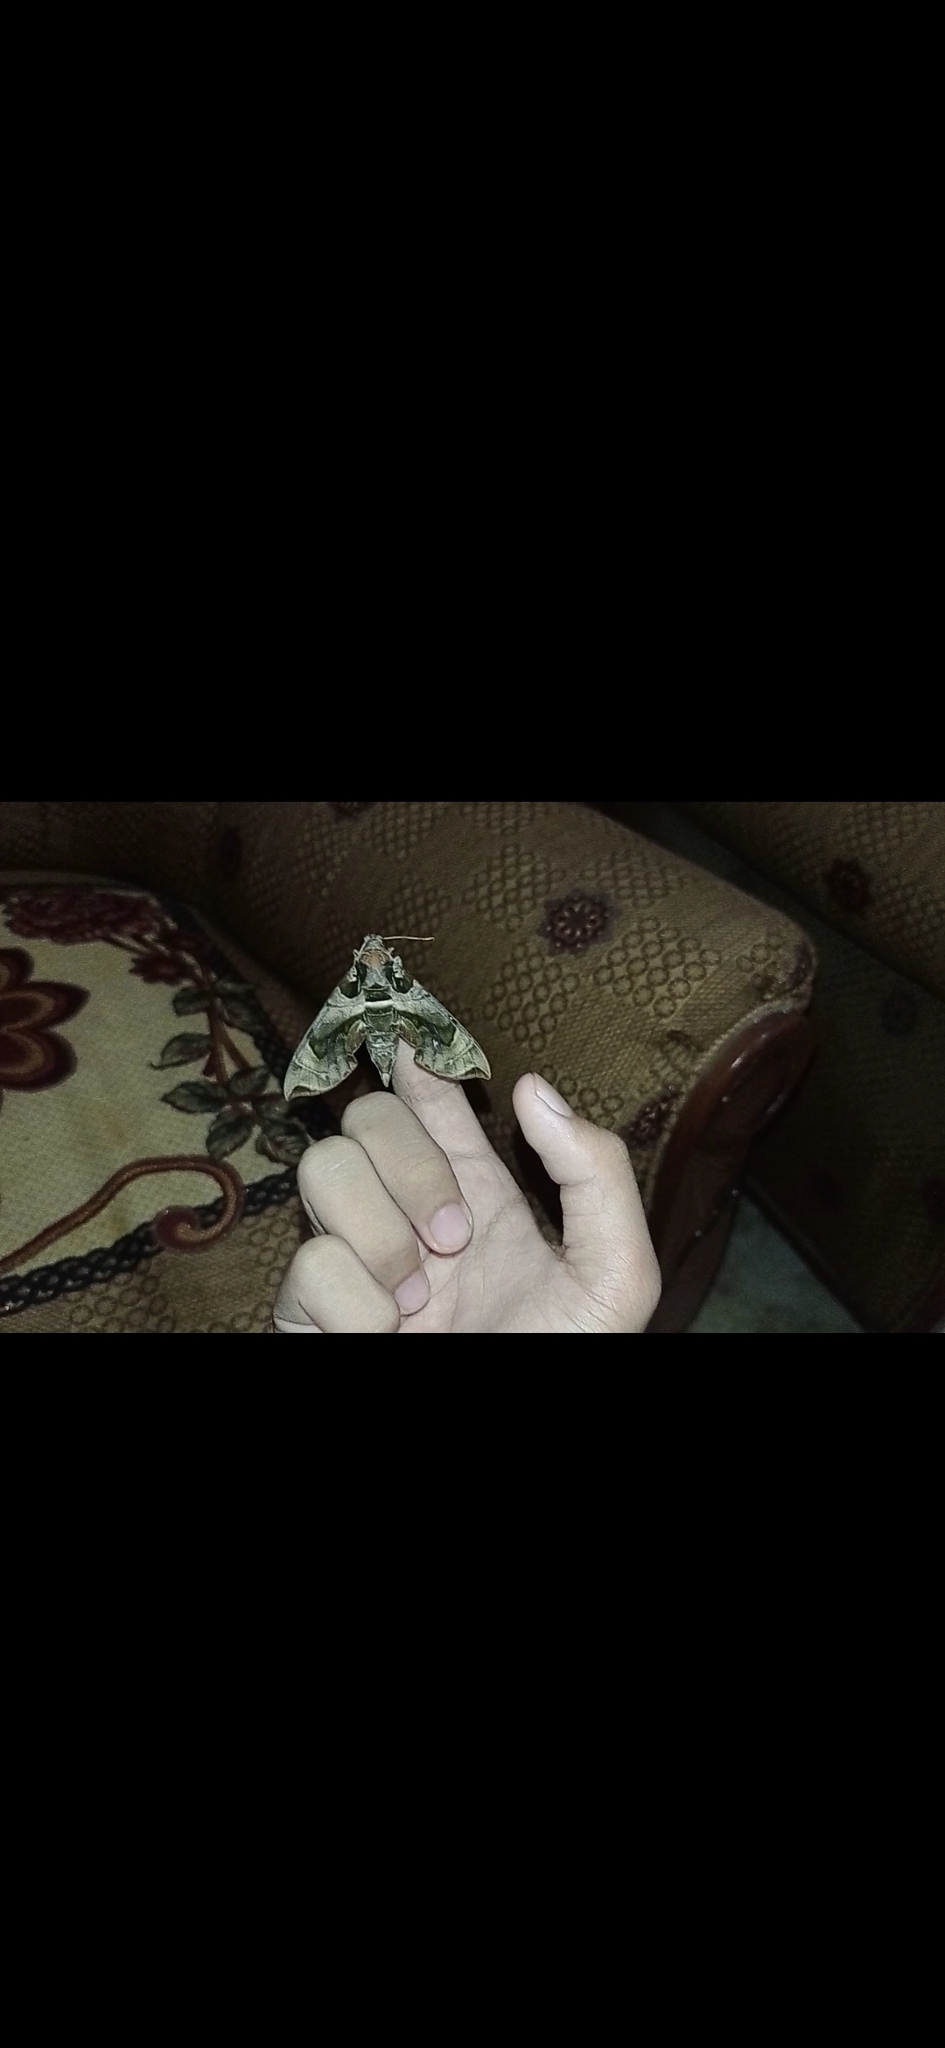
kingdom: Animalia
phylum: Arthropoda
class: Insecta
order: Lepidoptera
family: Sphingidae
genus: Daphnis
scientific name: Daphnis placida
